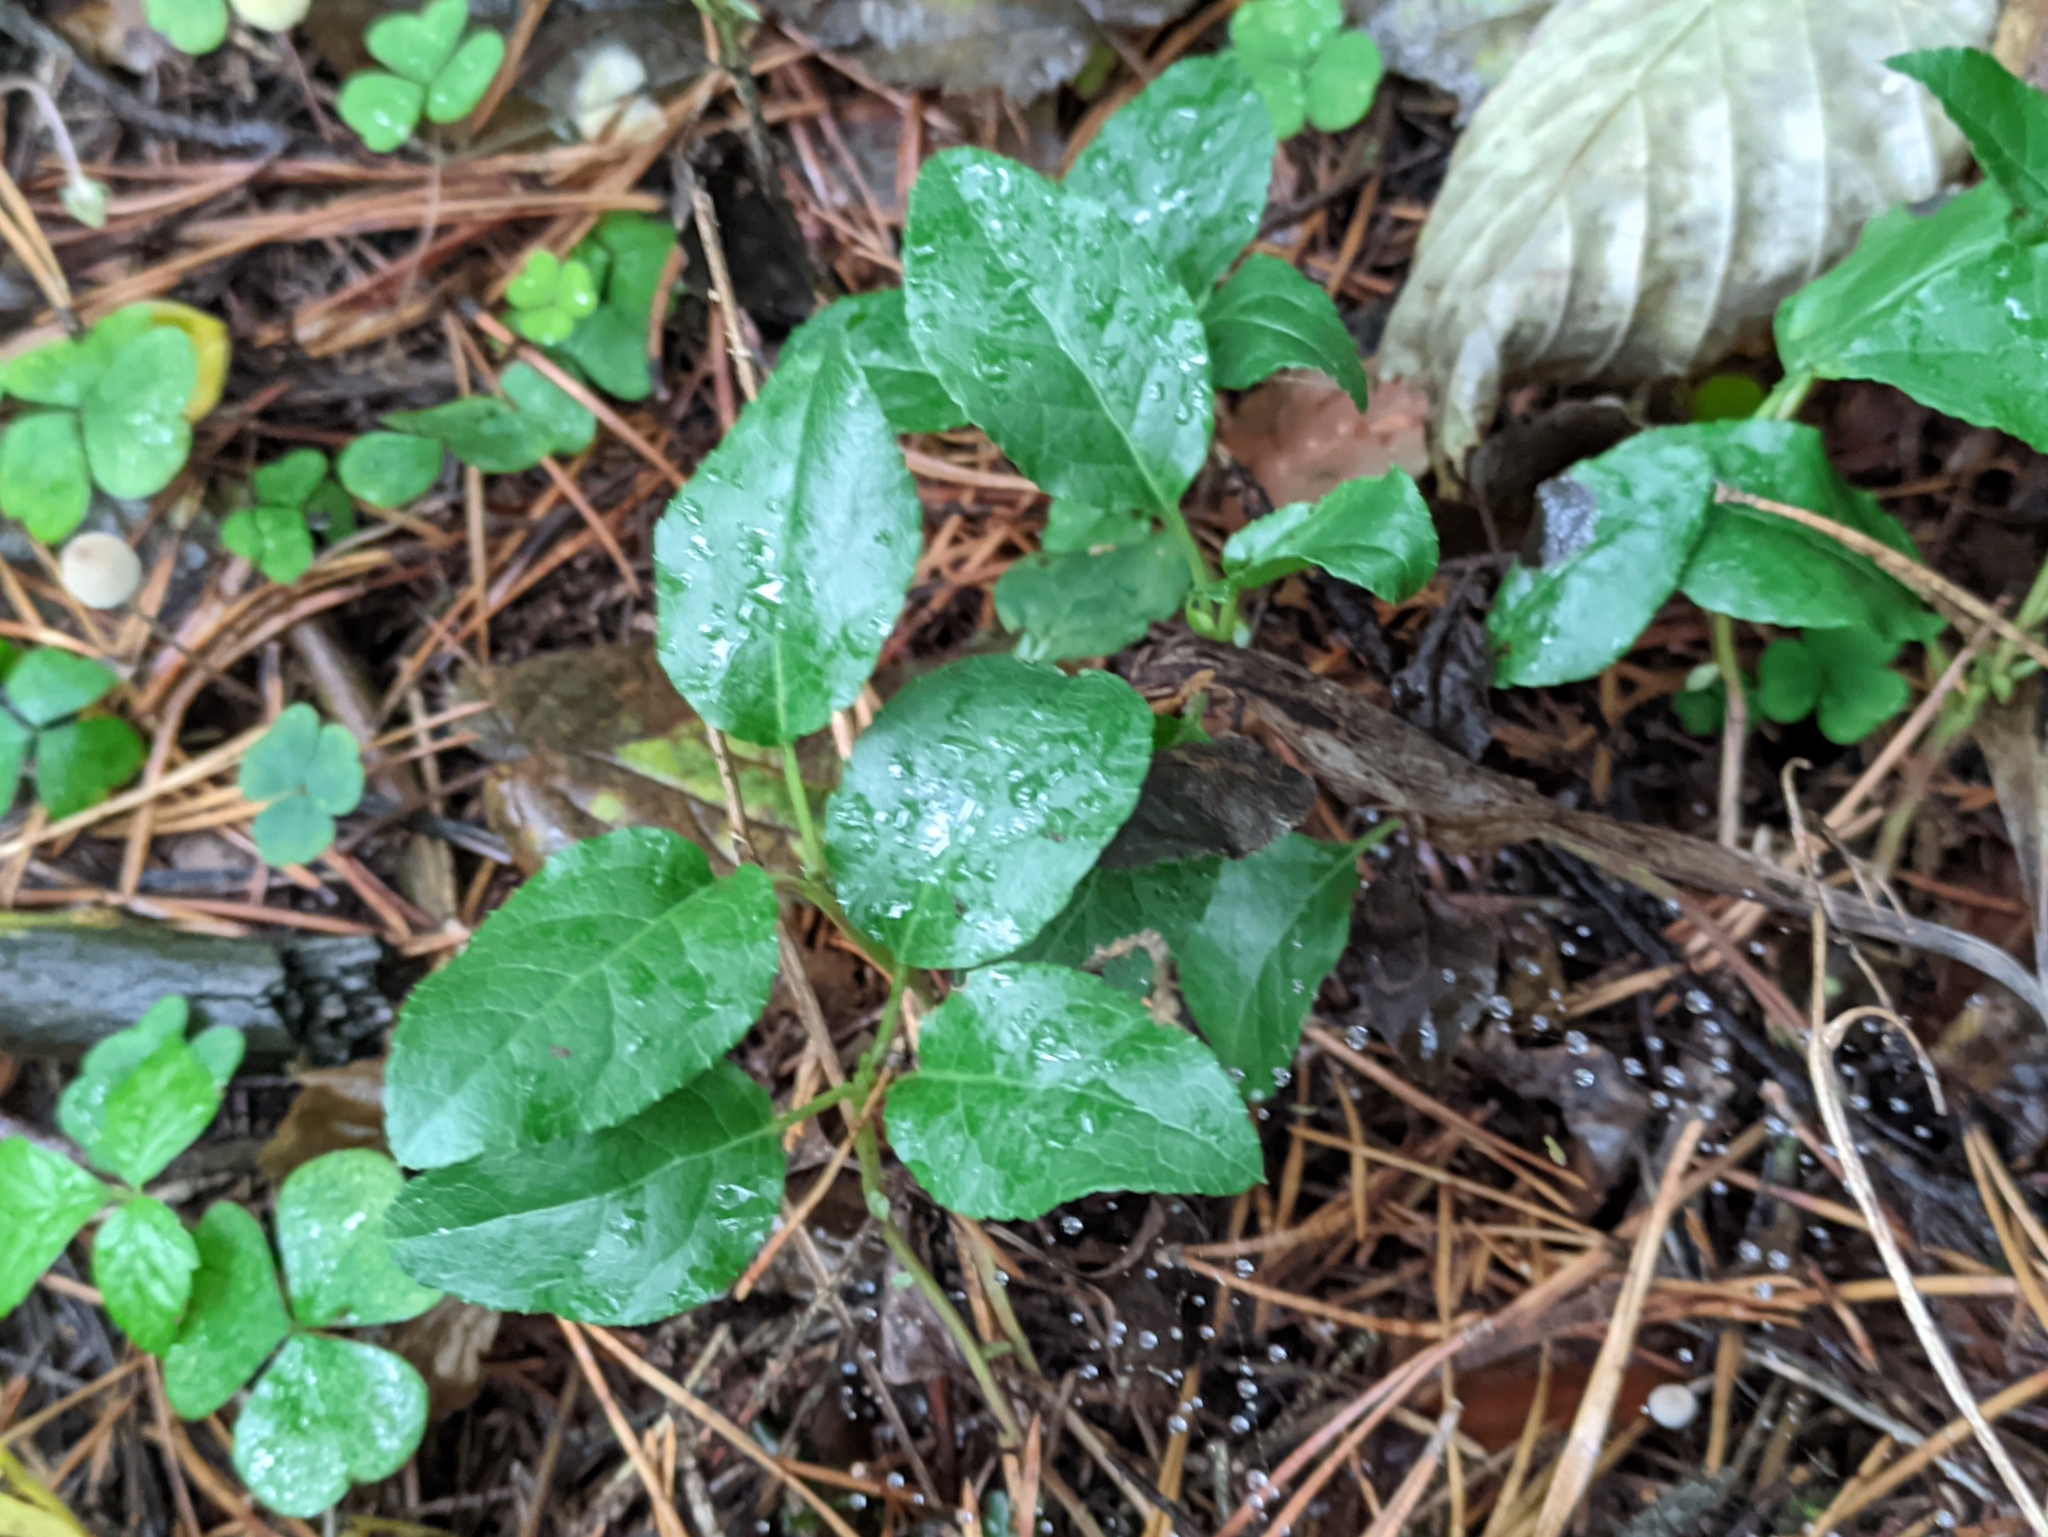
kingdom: Plantae
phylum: Tracheophyta
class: Magnoliopsida
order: Ericales
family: Ericaceae
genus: Orthilia
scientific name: Orthilia secunda
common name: One-sided orthilia
